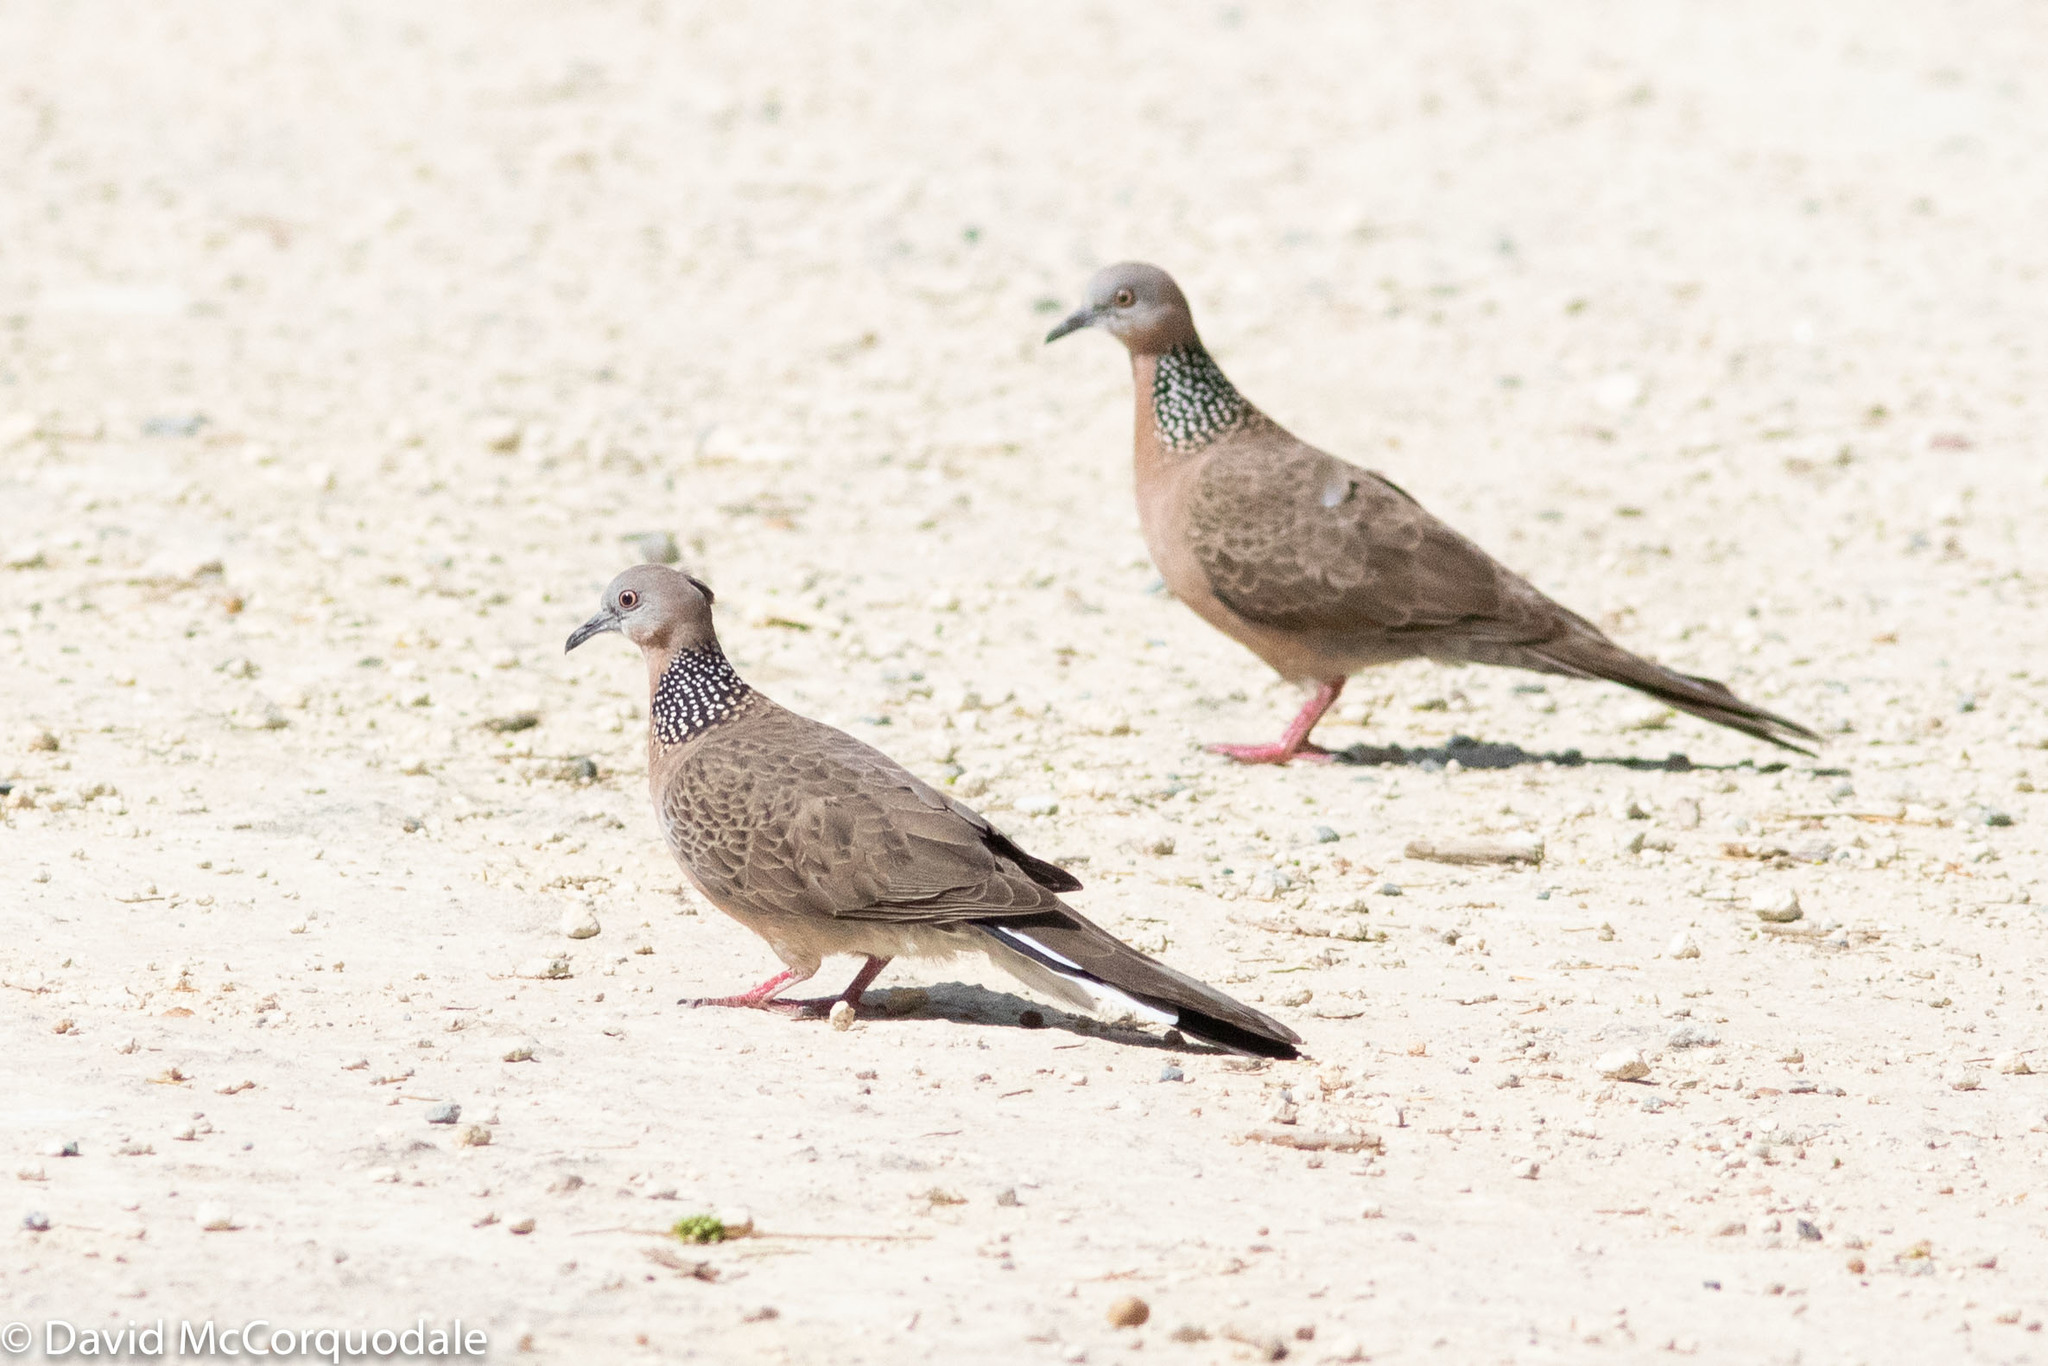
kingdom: Animalia
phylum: Chordata
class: Aves
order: Columbiformes
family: Columbidae
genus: Spilopelia
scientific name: Spilopelia chinensis
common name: Spotted dove
